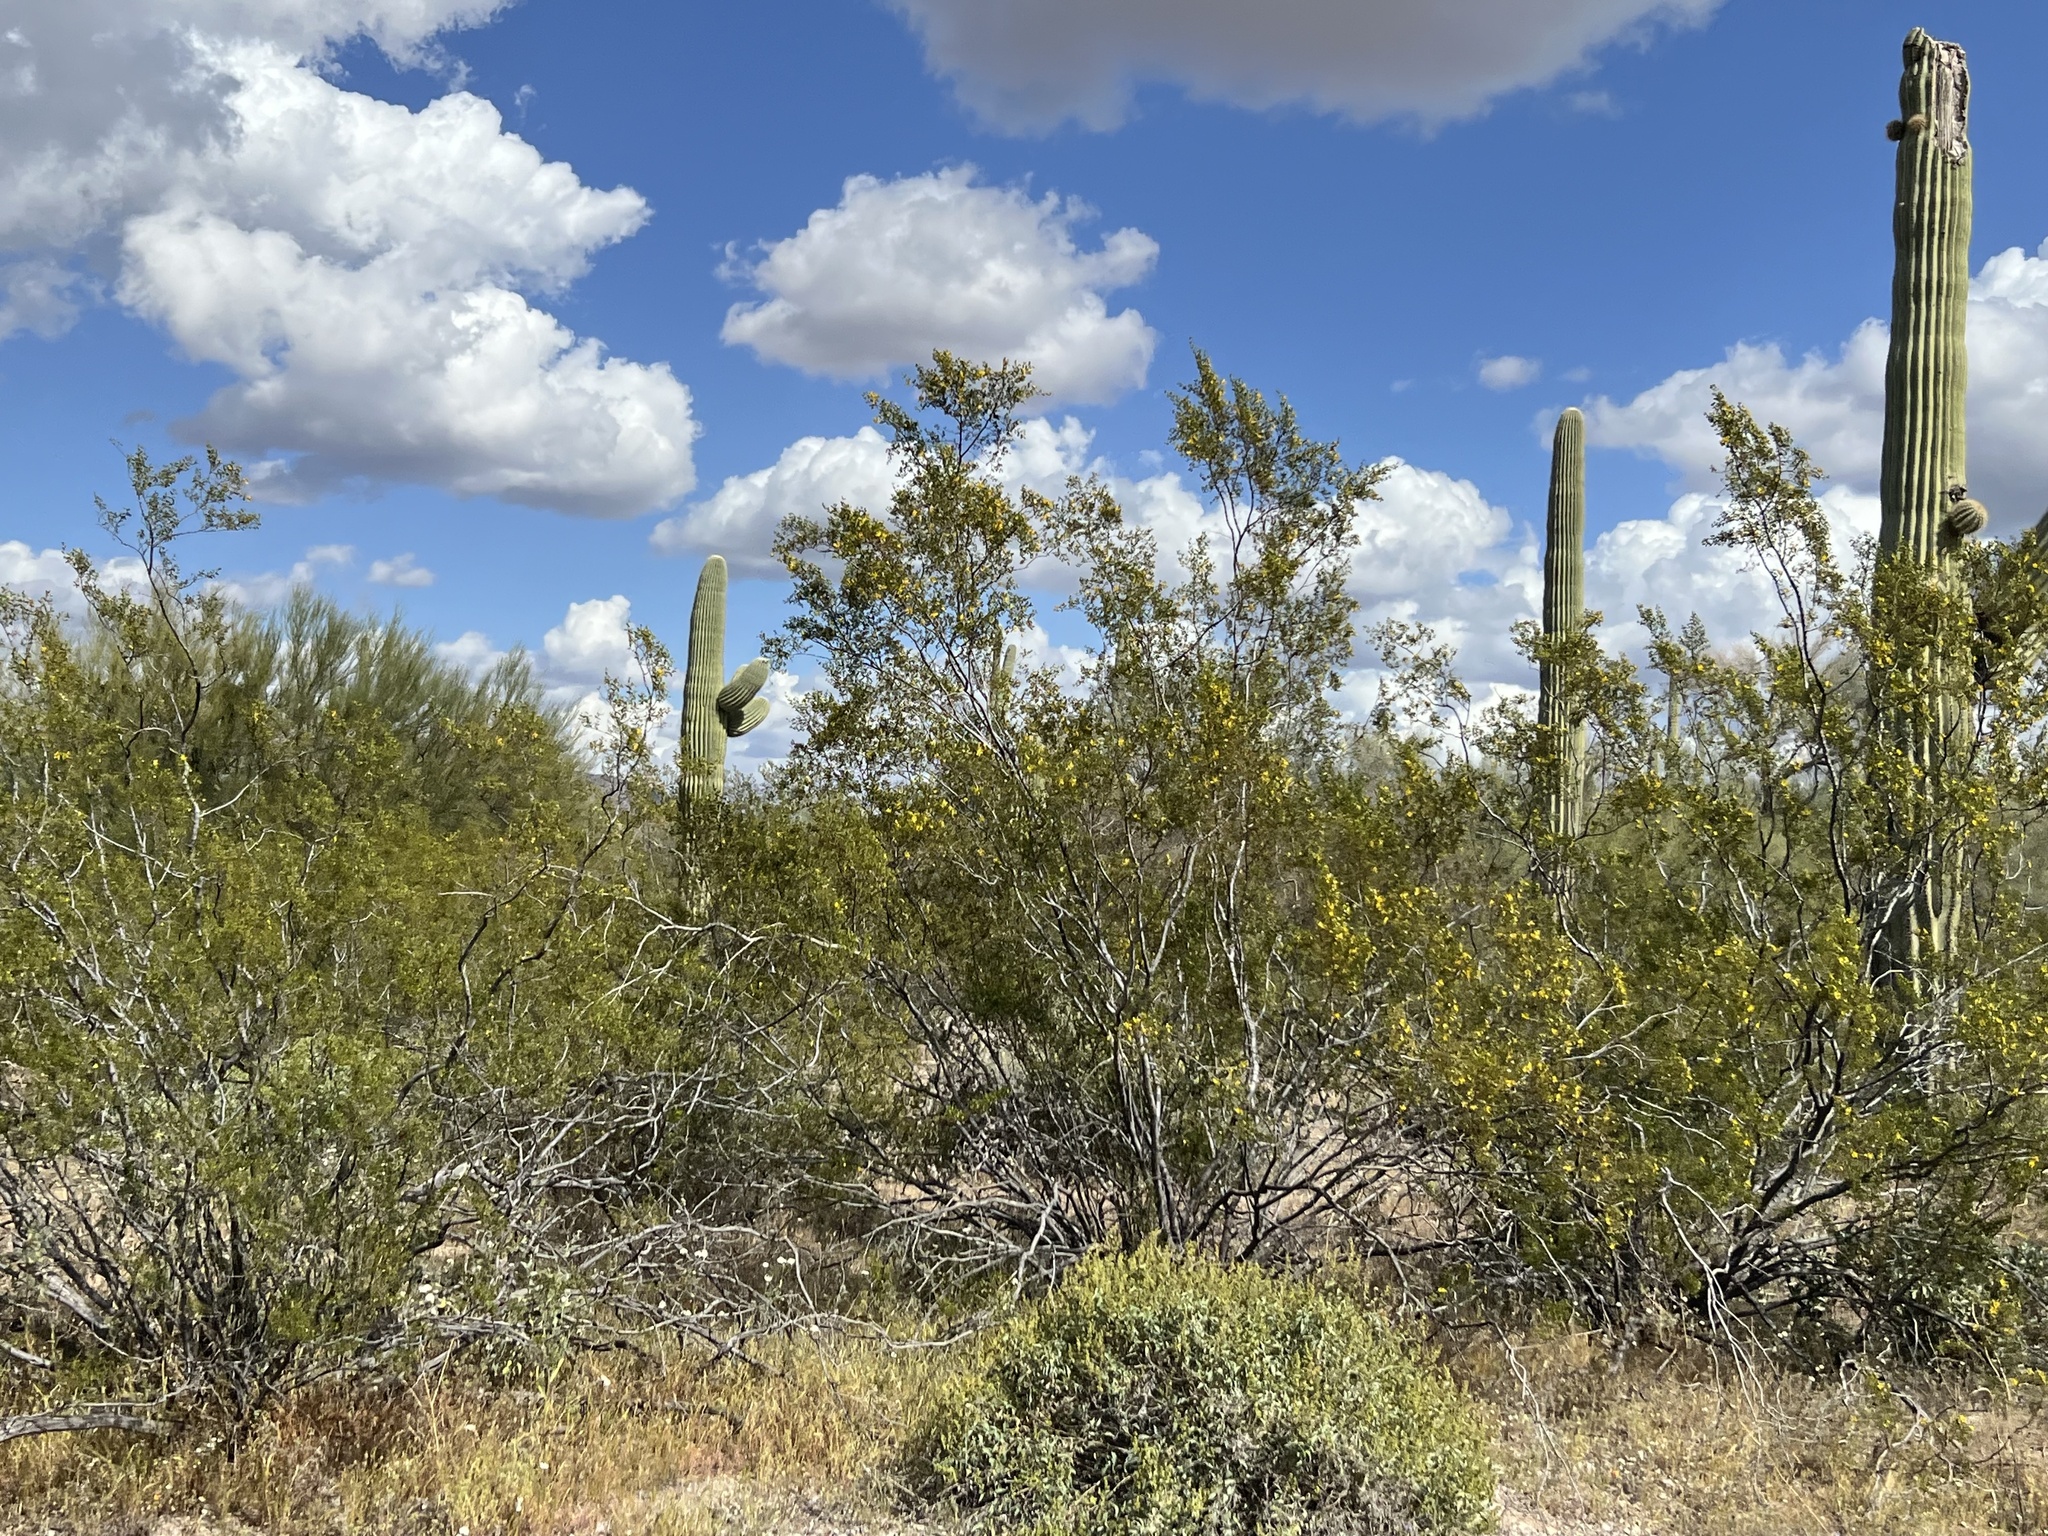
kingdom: Plantae
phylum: Tracheophyta
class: Magnoliopsida
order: Zygophyllales
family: Zygophyllaceae
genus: Larrea
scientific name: Larrea tridentata
